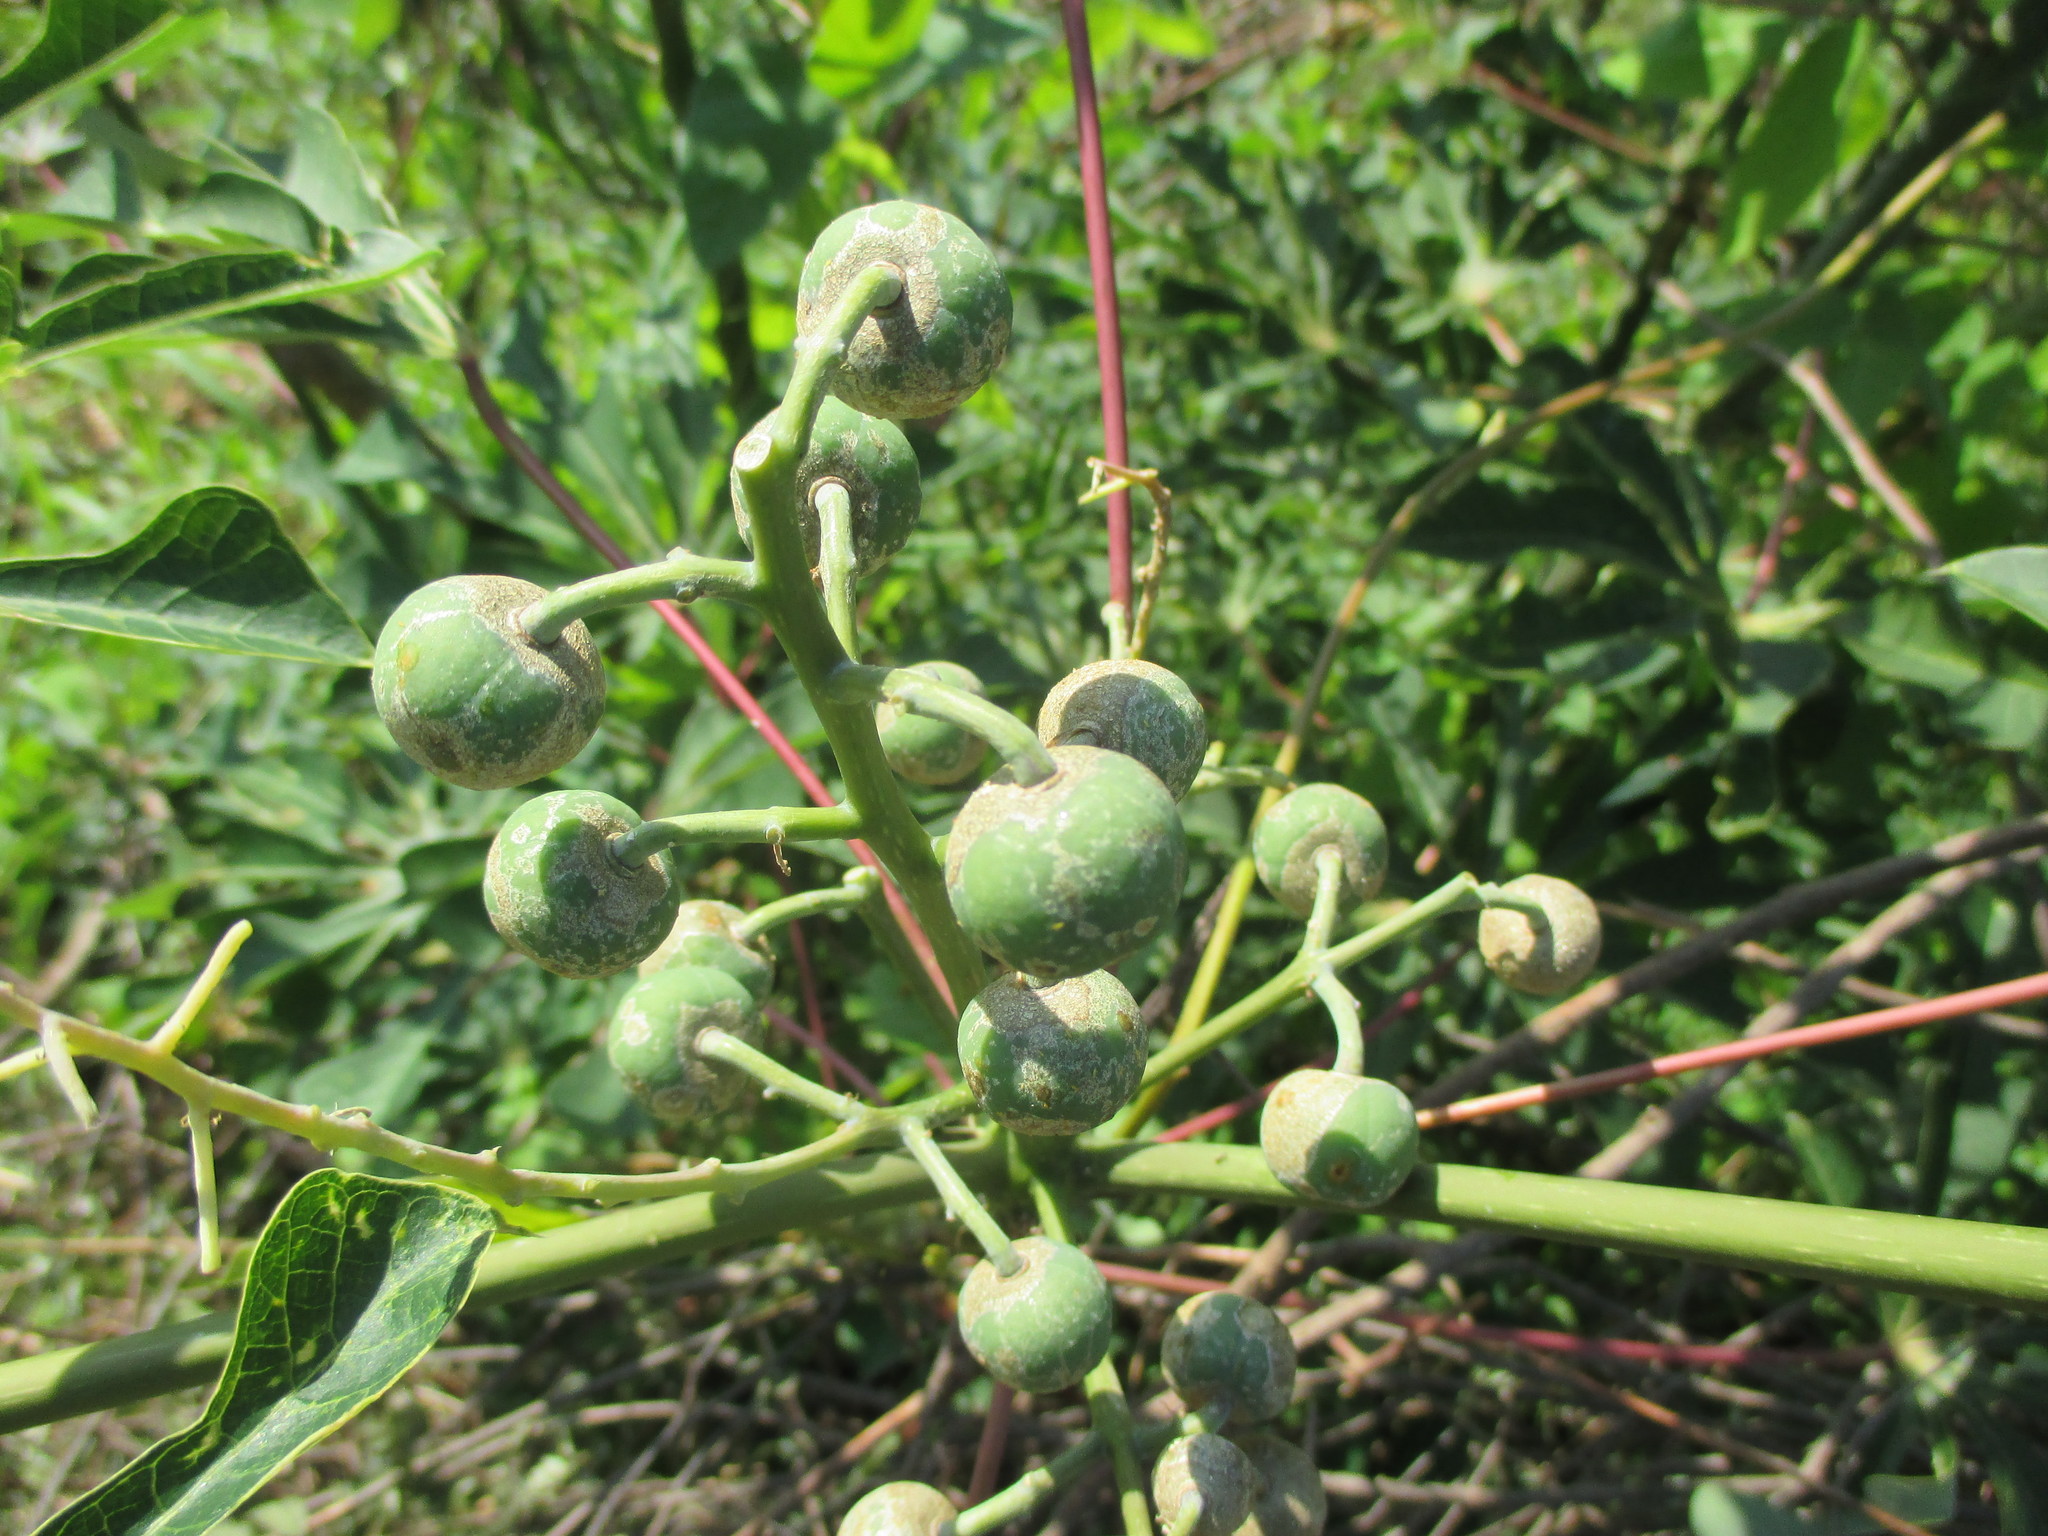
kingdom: Plantae
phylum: Tracheophyta
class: Magnoliopsida
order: Malpighiales
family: Euphorbiaceae
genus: Manihot
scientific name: Manihot aesculifolia
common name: Buckeye-leafed cassava
